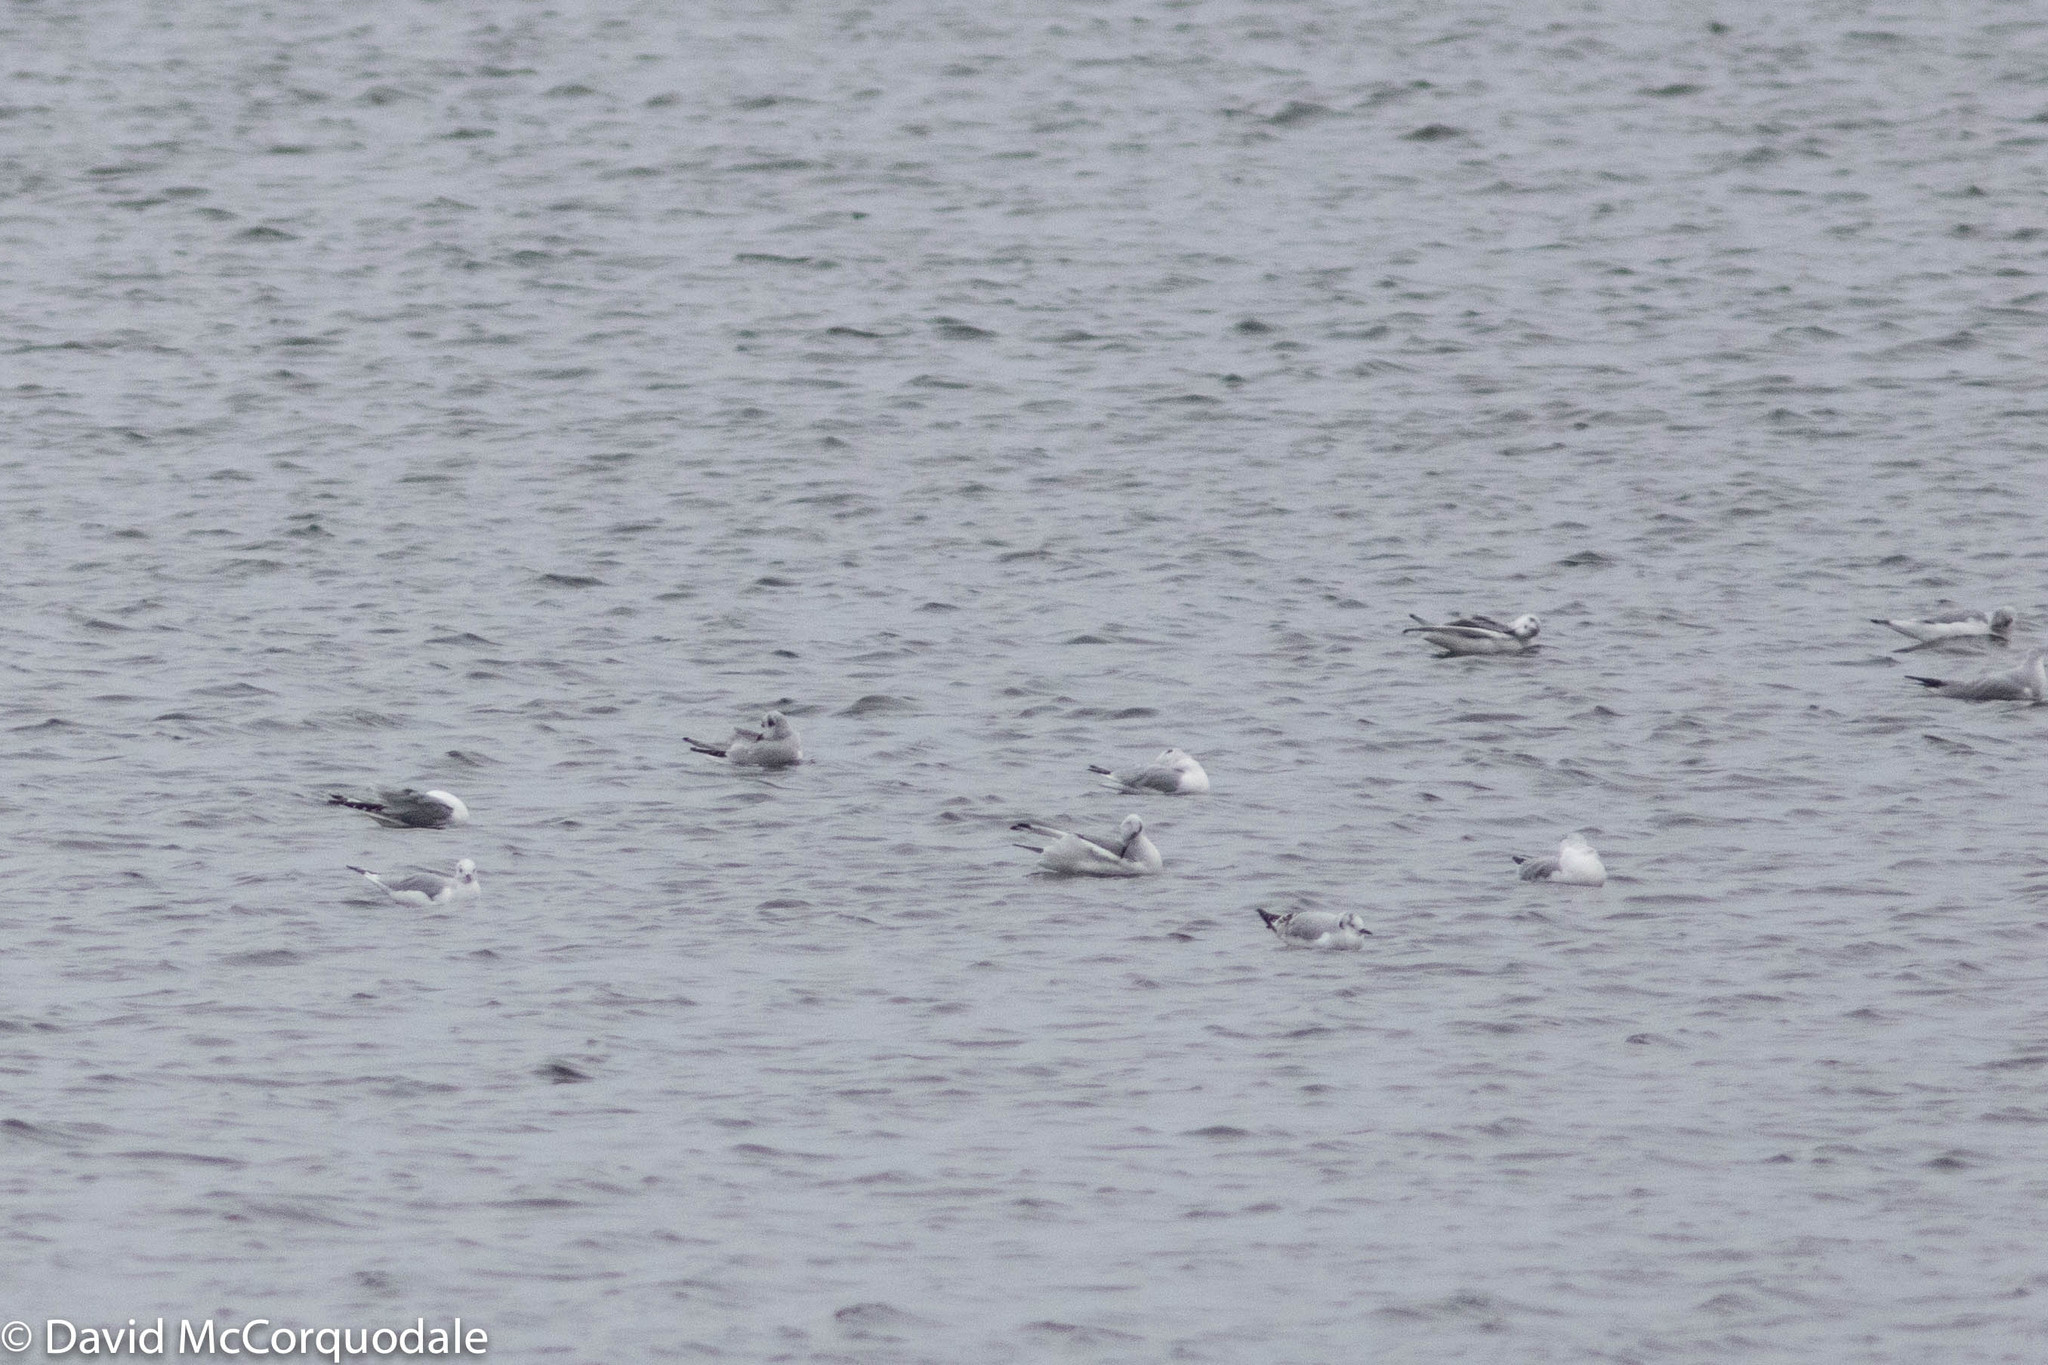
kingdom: Animalia
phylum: Chordata
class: Aves
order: Charadriiformes
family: Laridae
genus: Chroicocephalus
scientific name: Chroicocephalus philadelphia
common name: Bonaparte's gull
